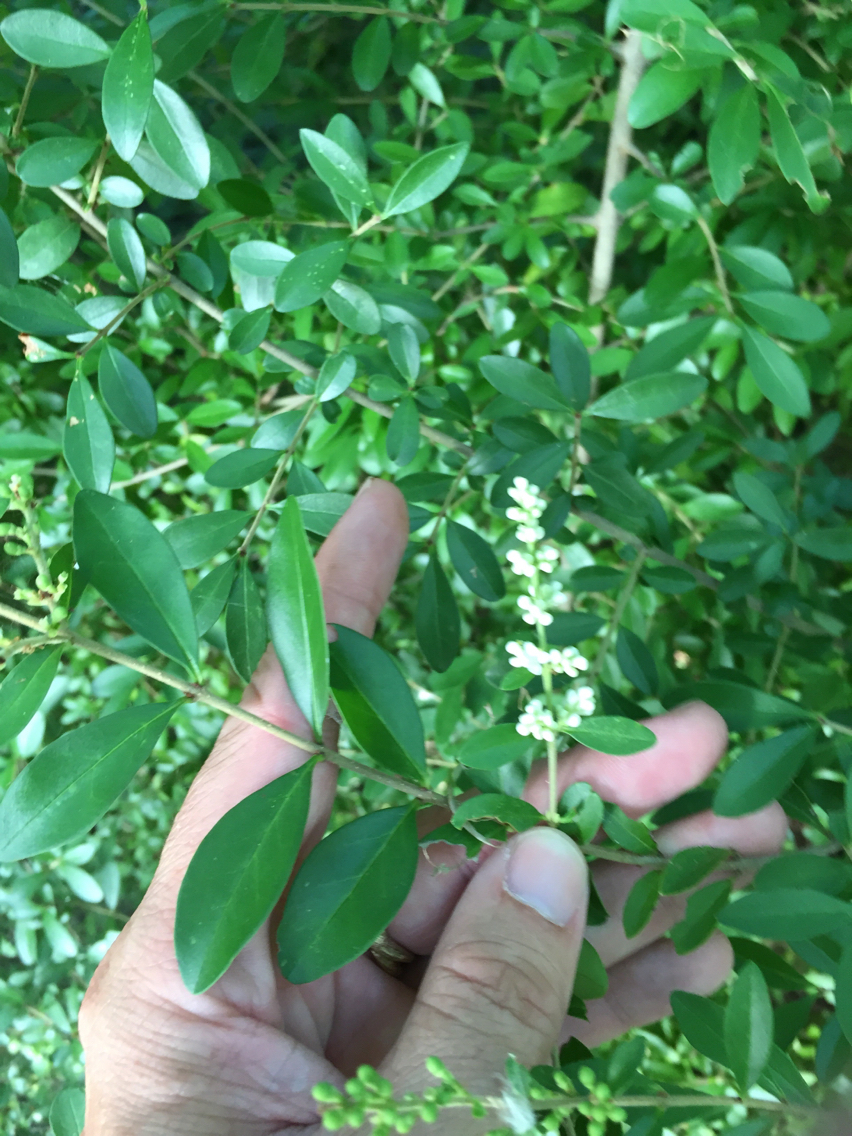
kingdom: Plantae
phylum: Tracheophyta
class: Magnoliopsida
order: Lamiales
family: Oleaceae
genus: Ligustrum
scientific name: Ligustrum quihoui
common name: Waxyleaf privet
